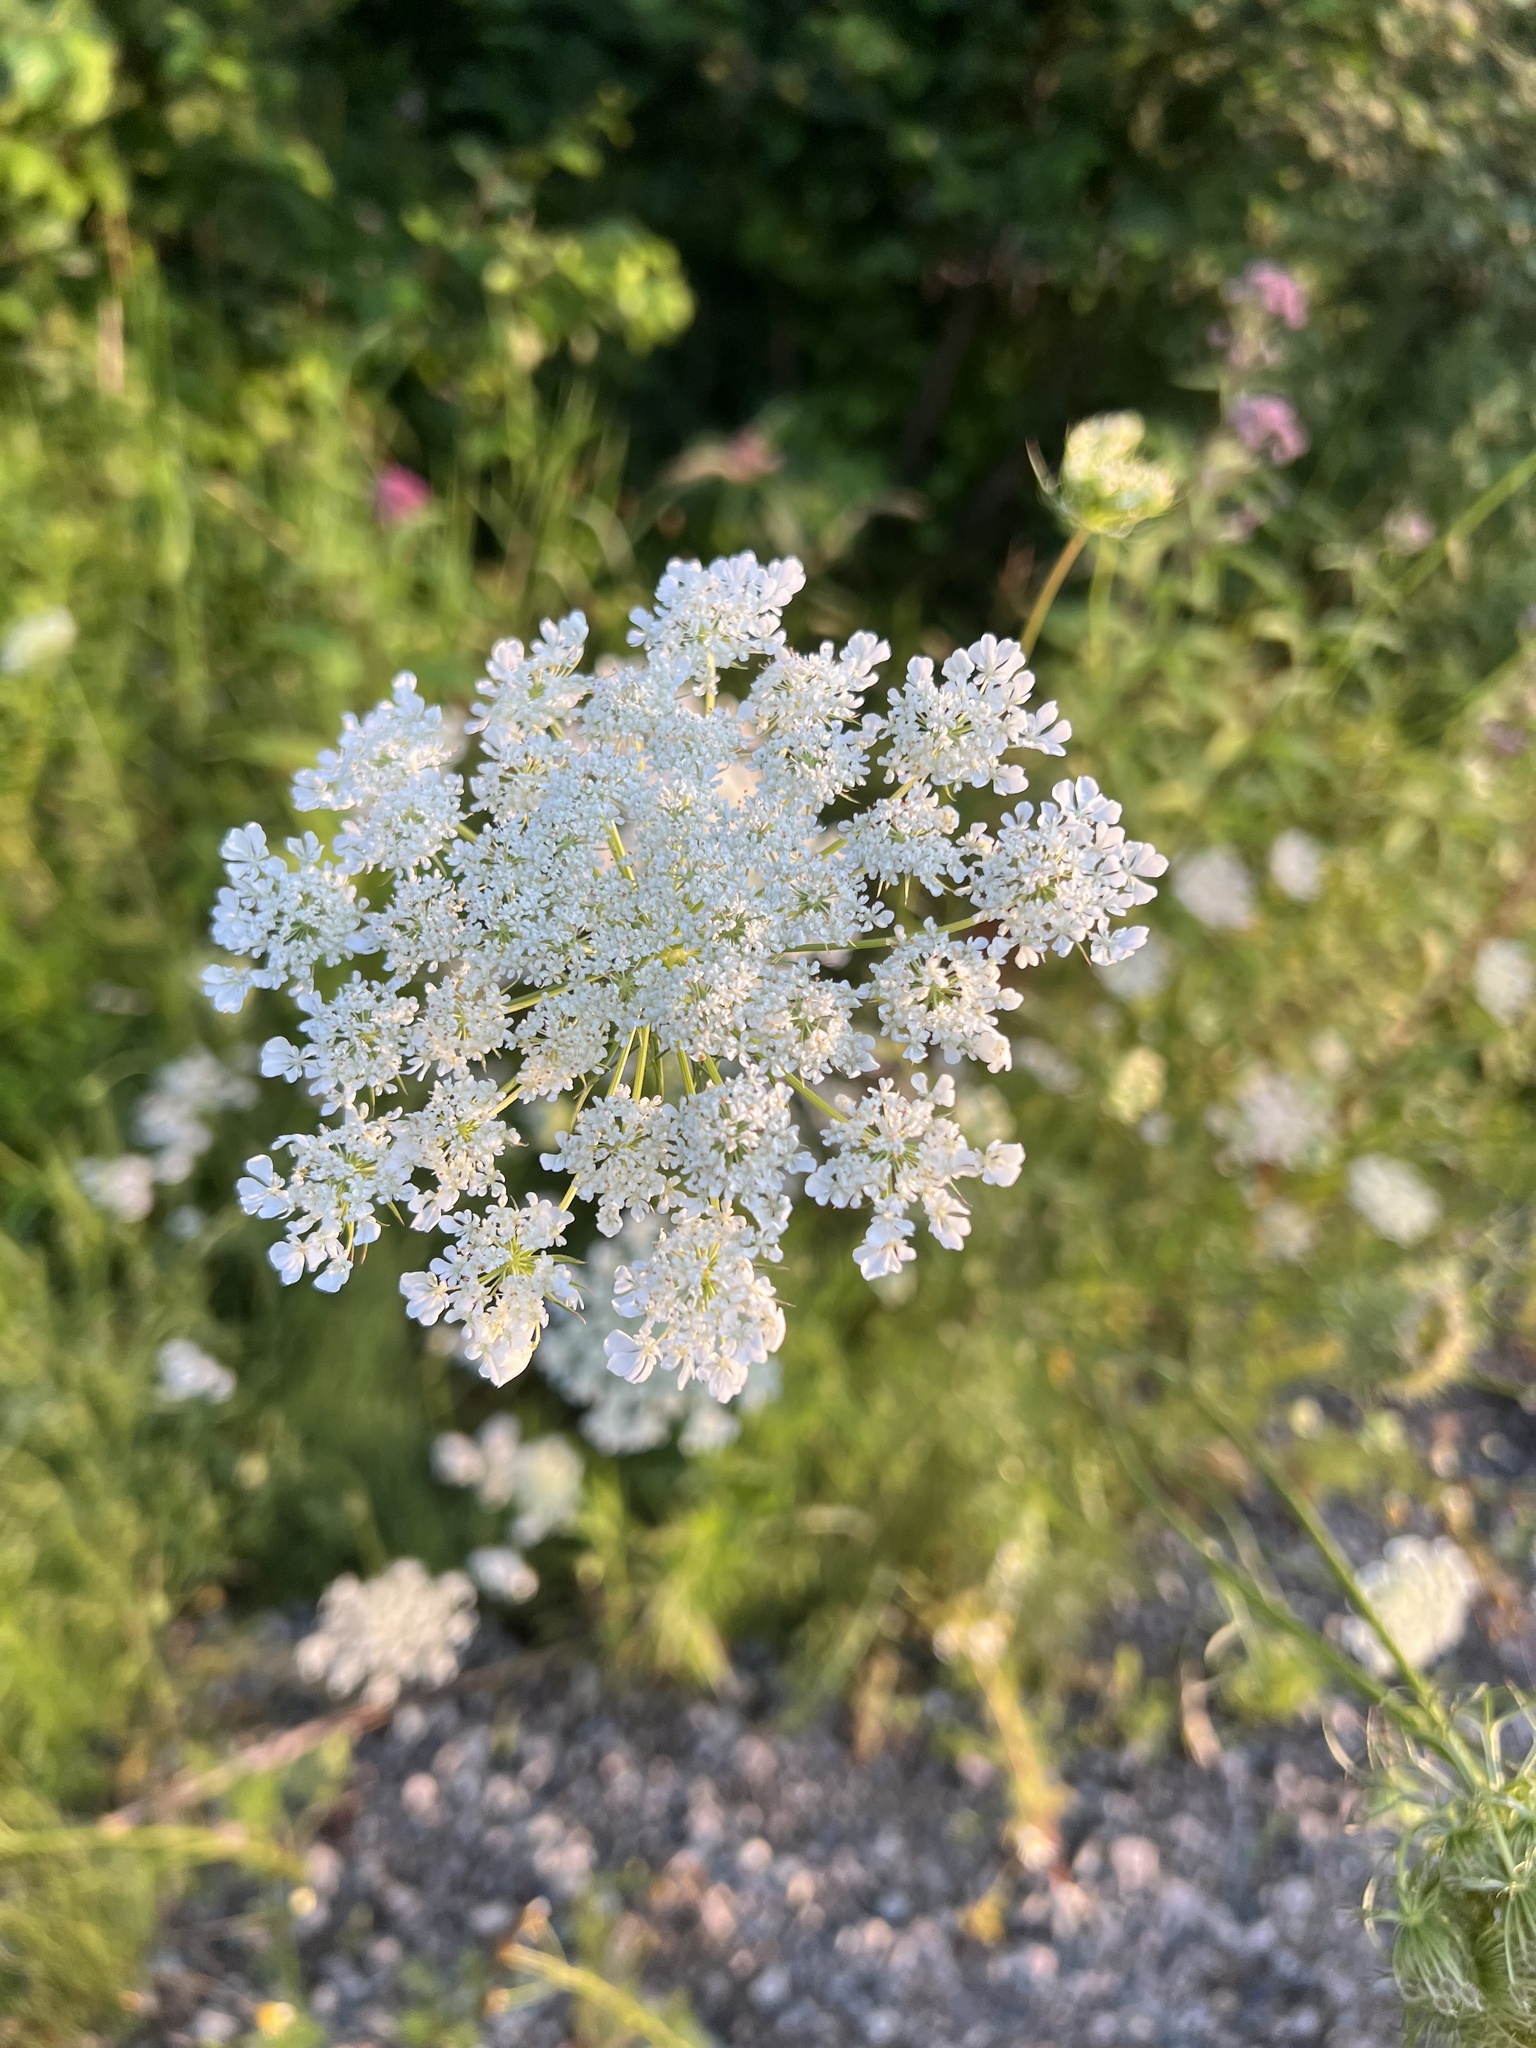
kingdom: Plantae
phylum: Tracheophyta
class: Magnoliopsida
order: Apiales
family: Apiaceae
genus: Daucus
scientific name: Daucus carota
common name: Wild carrot
